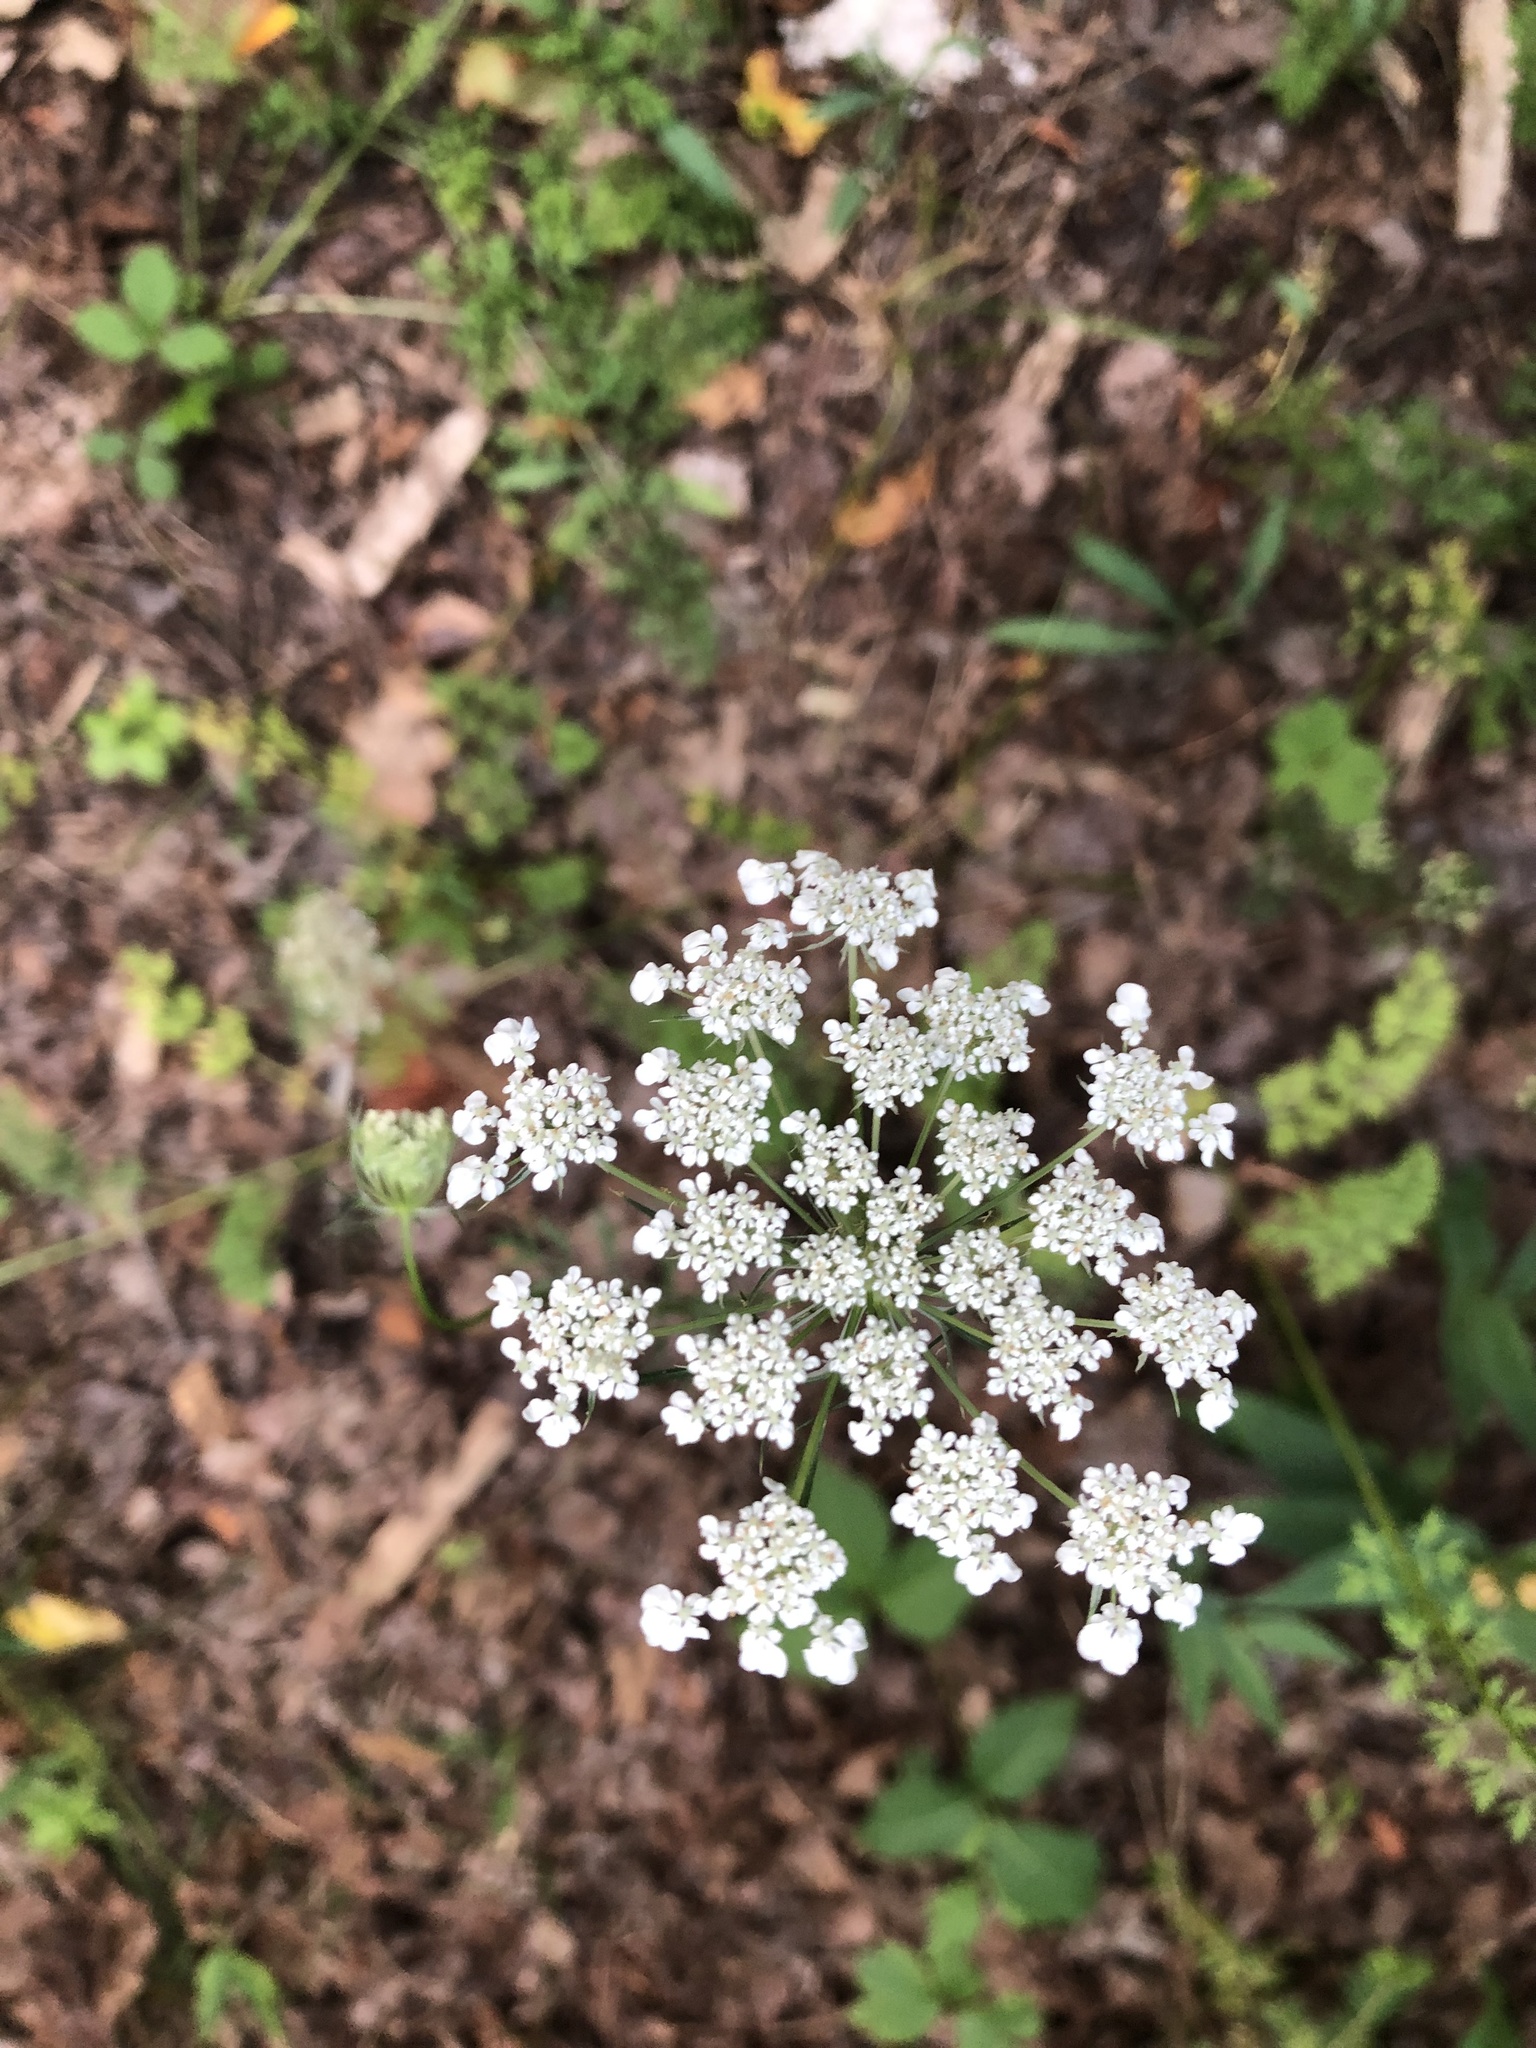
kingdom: Plantae
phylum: Tracheophyta
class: Magnoliopsida
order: Apiales
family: Apiaceae
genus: Daucus
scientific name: Daucus carota
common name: Wild carrot
